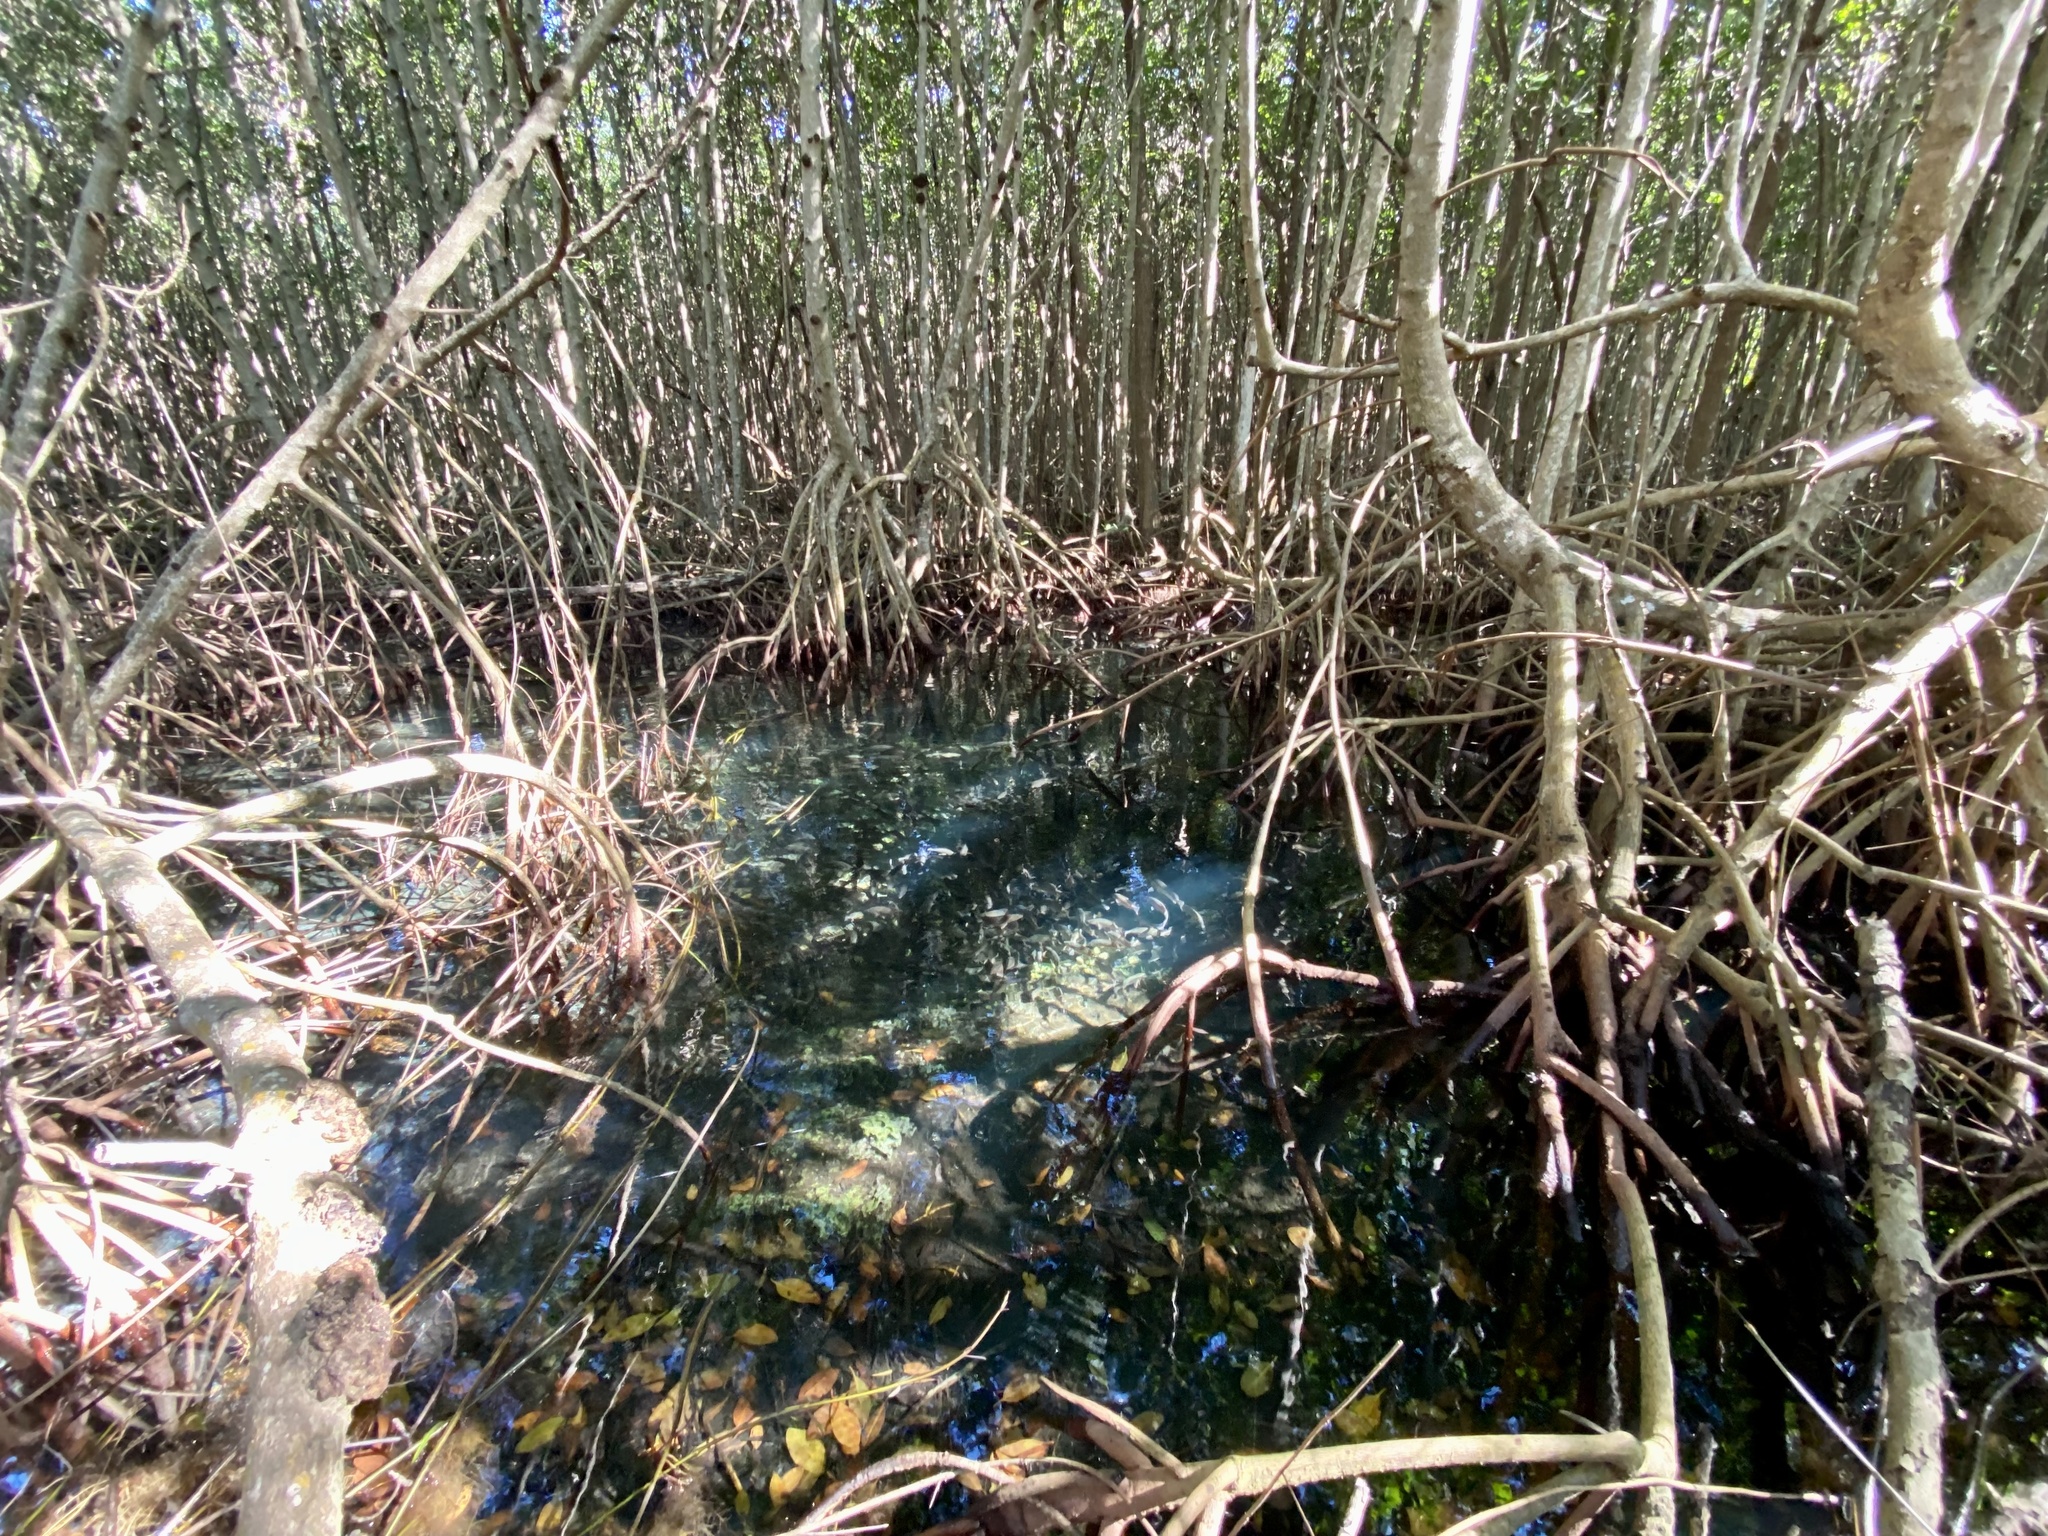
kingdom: Animalia
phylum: Chordata
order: Perciformes
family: Lutjanidae
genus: Lutjanus
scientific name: Lutjanus griseus
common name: Gray snapper
